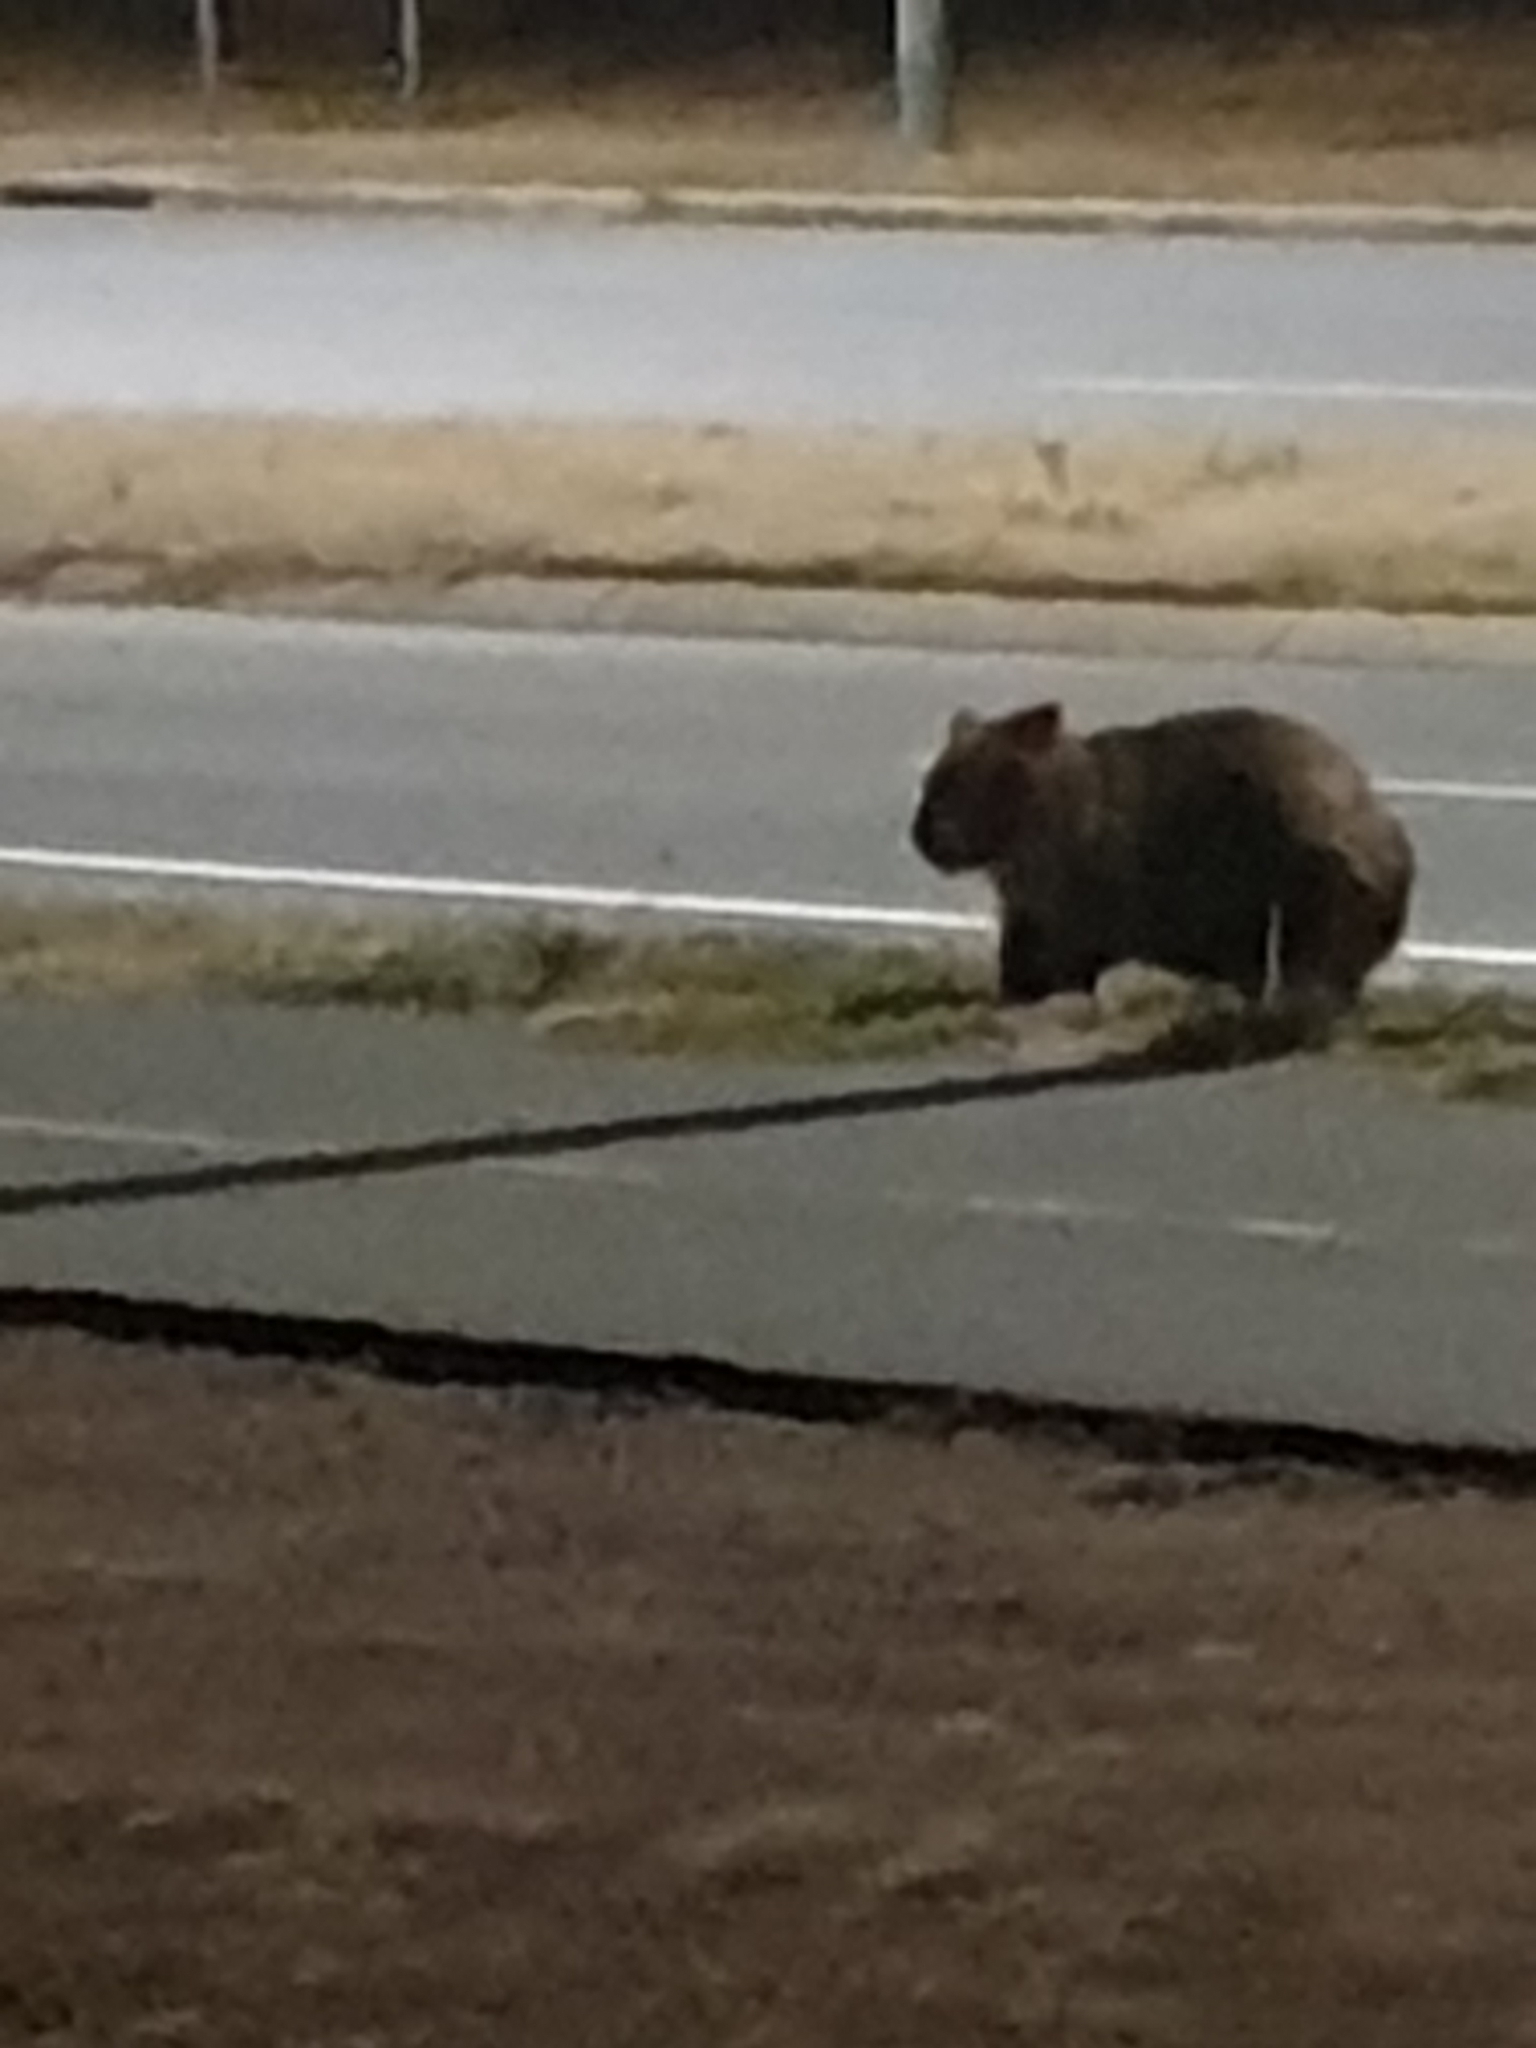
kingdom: Animalia
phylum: Chordata
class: Mammalia
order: Diprotodontia
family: Vombatidae
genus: Vombatus
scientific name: Vombatus ursinus
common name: Common wombat
